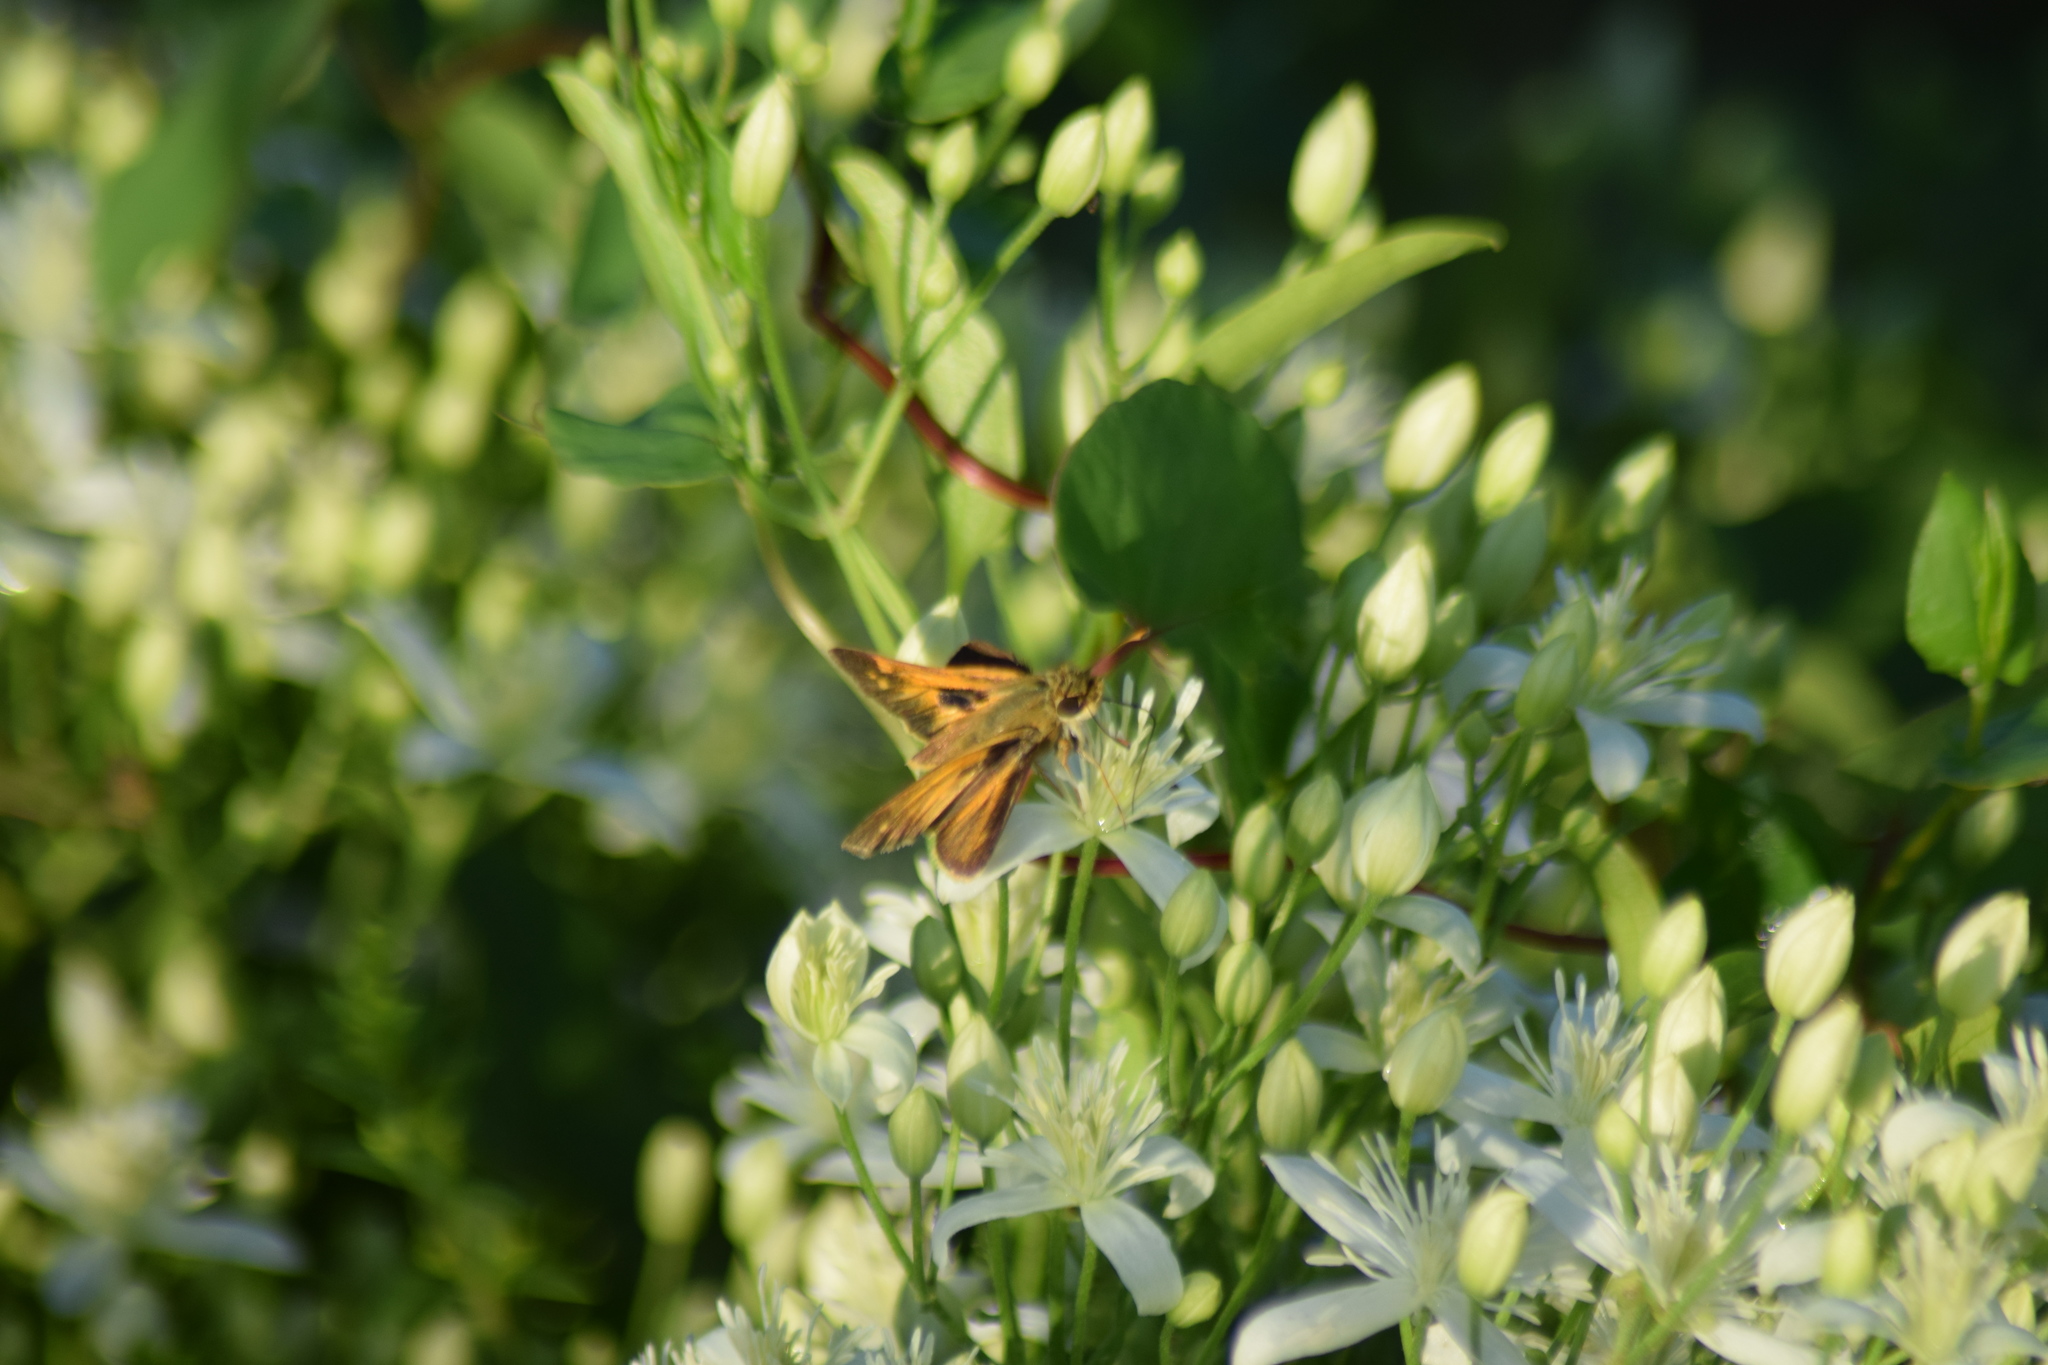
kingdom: Animalia
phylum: Arthropoda
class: Insecta
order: Lepidoptera
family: Hesperiidae
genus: Atalopedes
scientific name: Atalopedes
